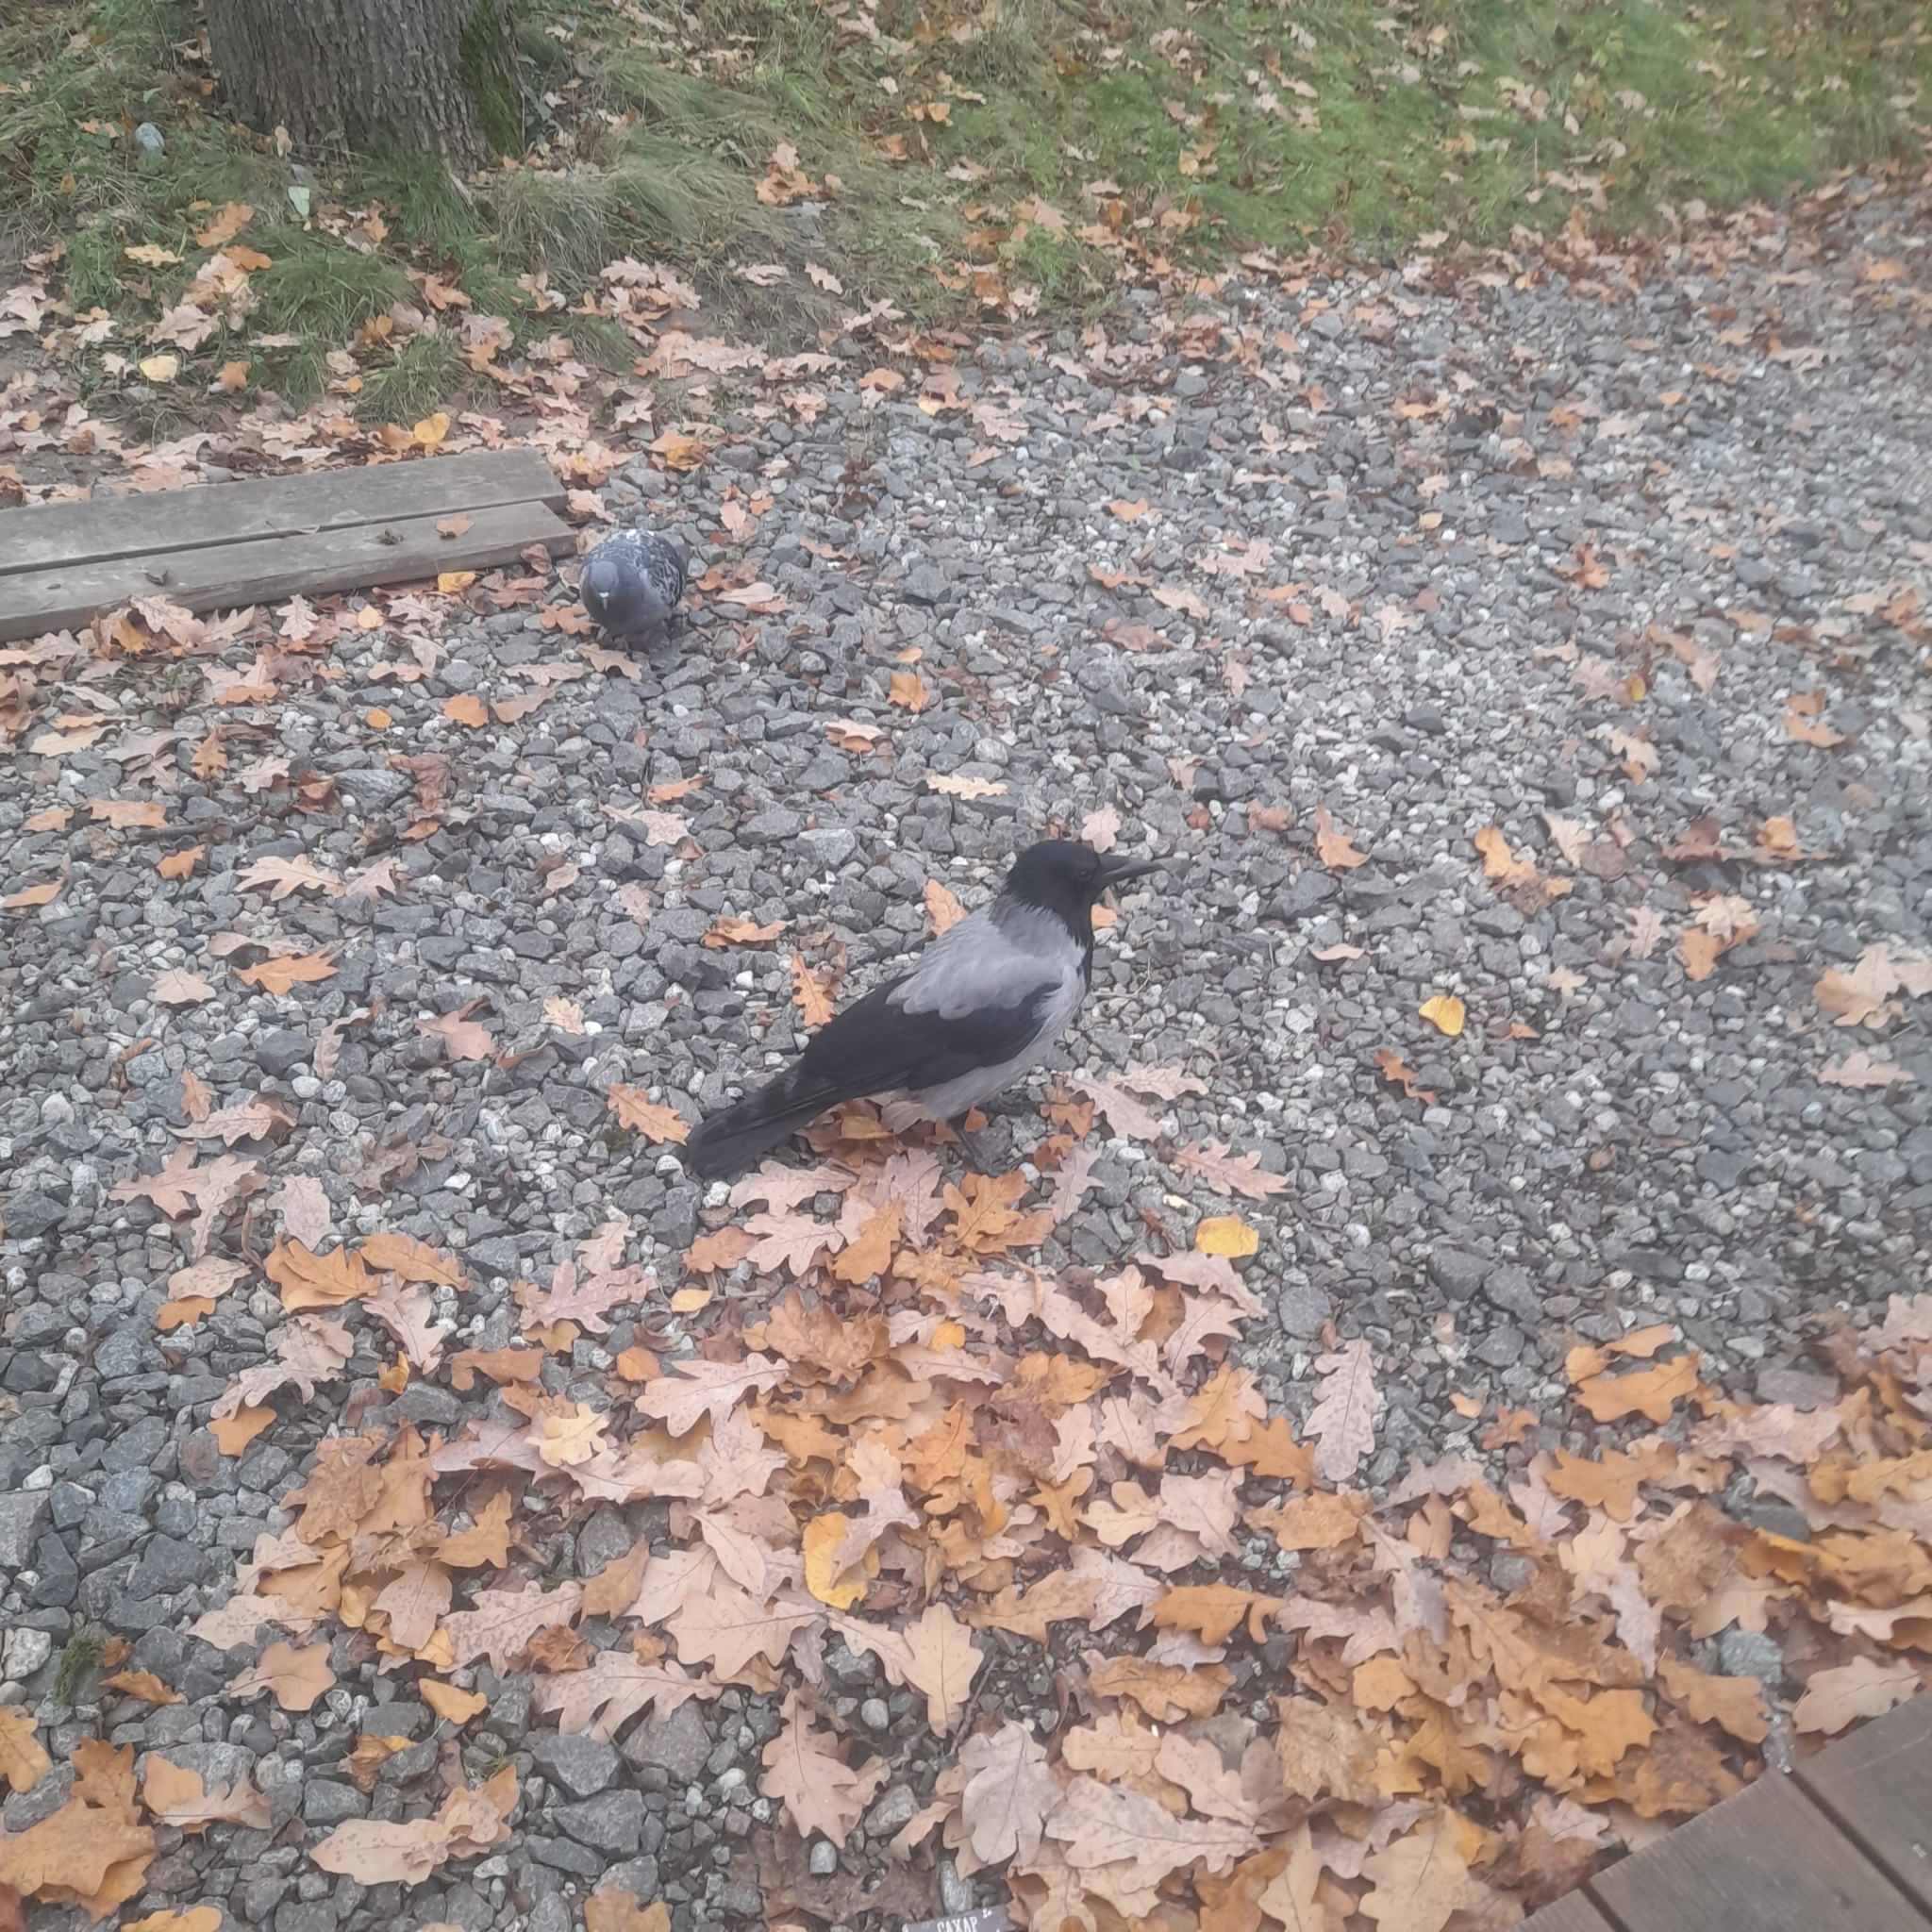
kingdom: Animalia
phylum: Chordata
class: Aves
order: Passeriformes
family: Corvidae
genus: Corvus
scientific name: Corvus cornix
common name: Hooded crow
